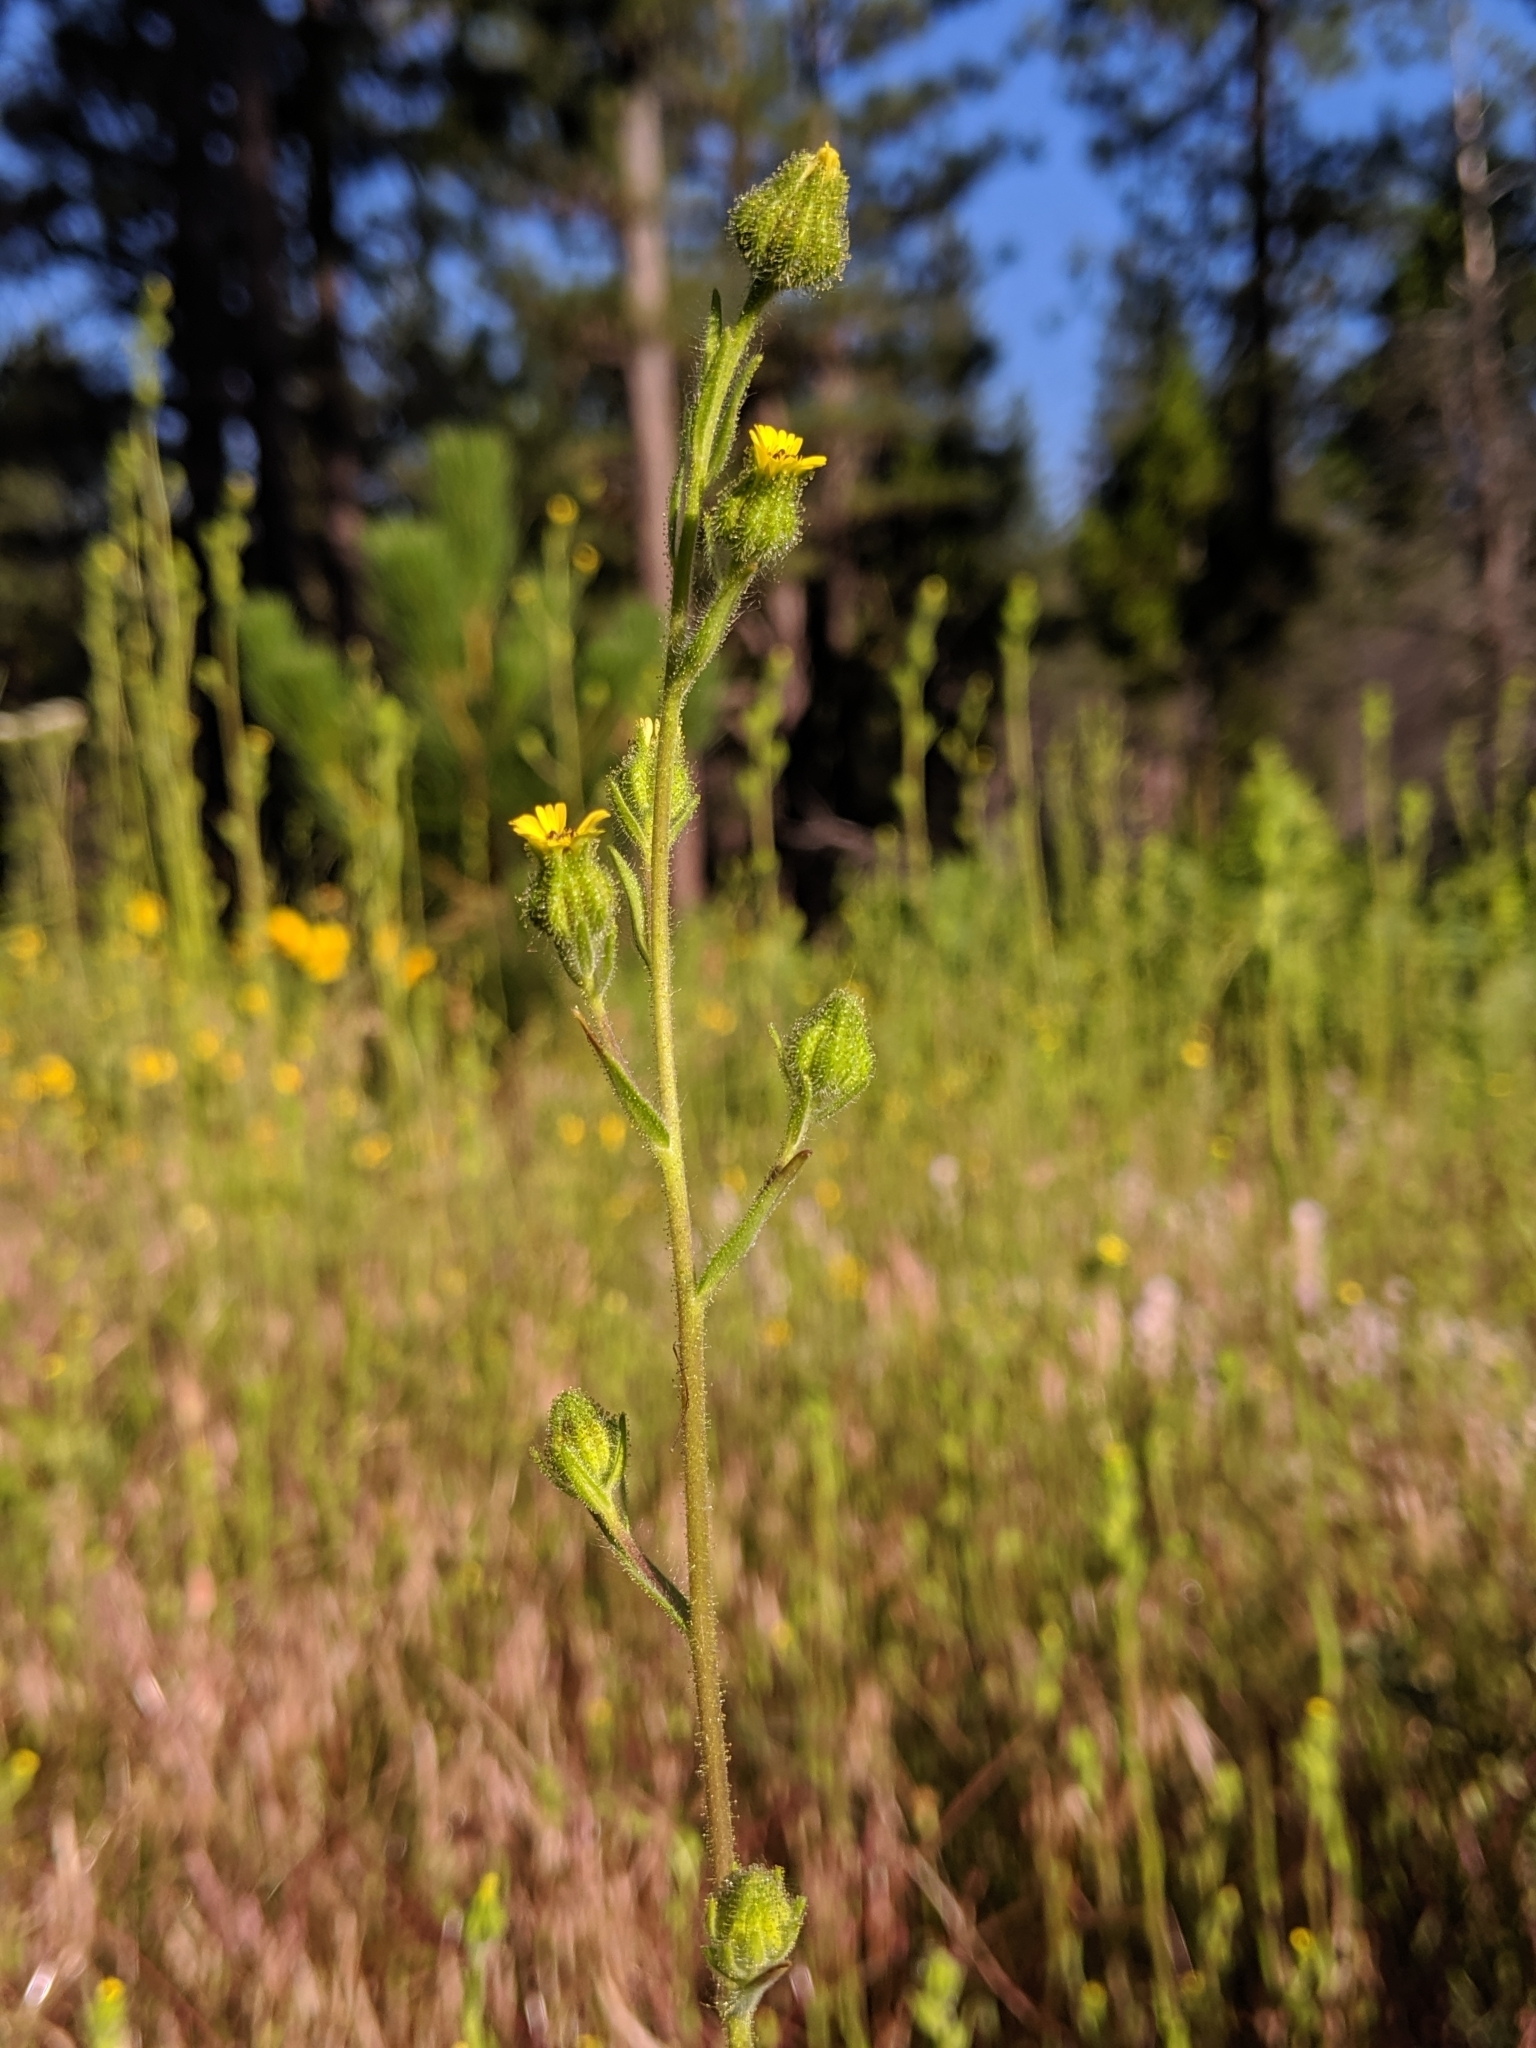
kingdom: Plantae
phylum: Tracheophyta
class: Magnoliopsida
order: Asterales
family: Asteraceae
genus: Madia
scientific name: Madia gracilis
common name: Grassy tarweed
